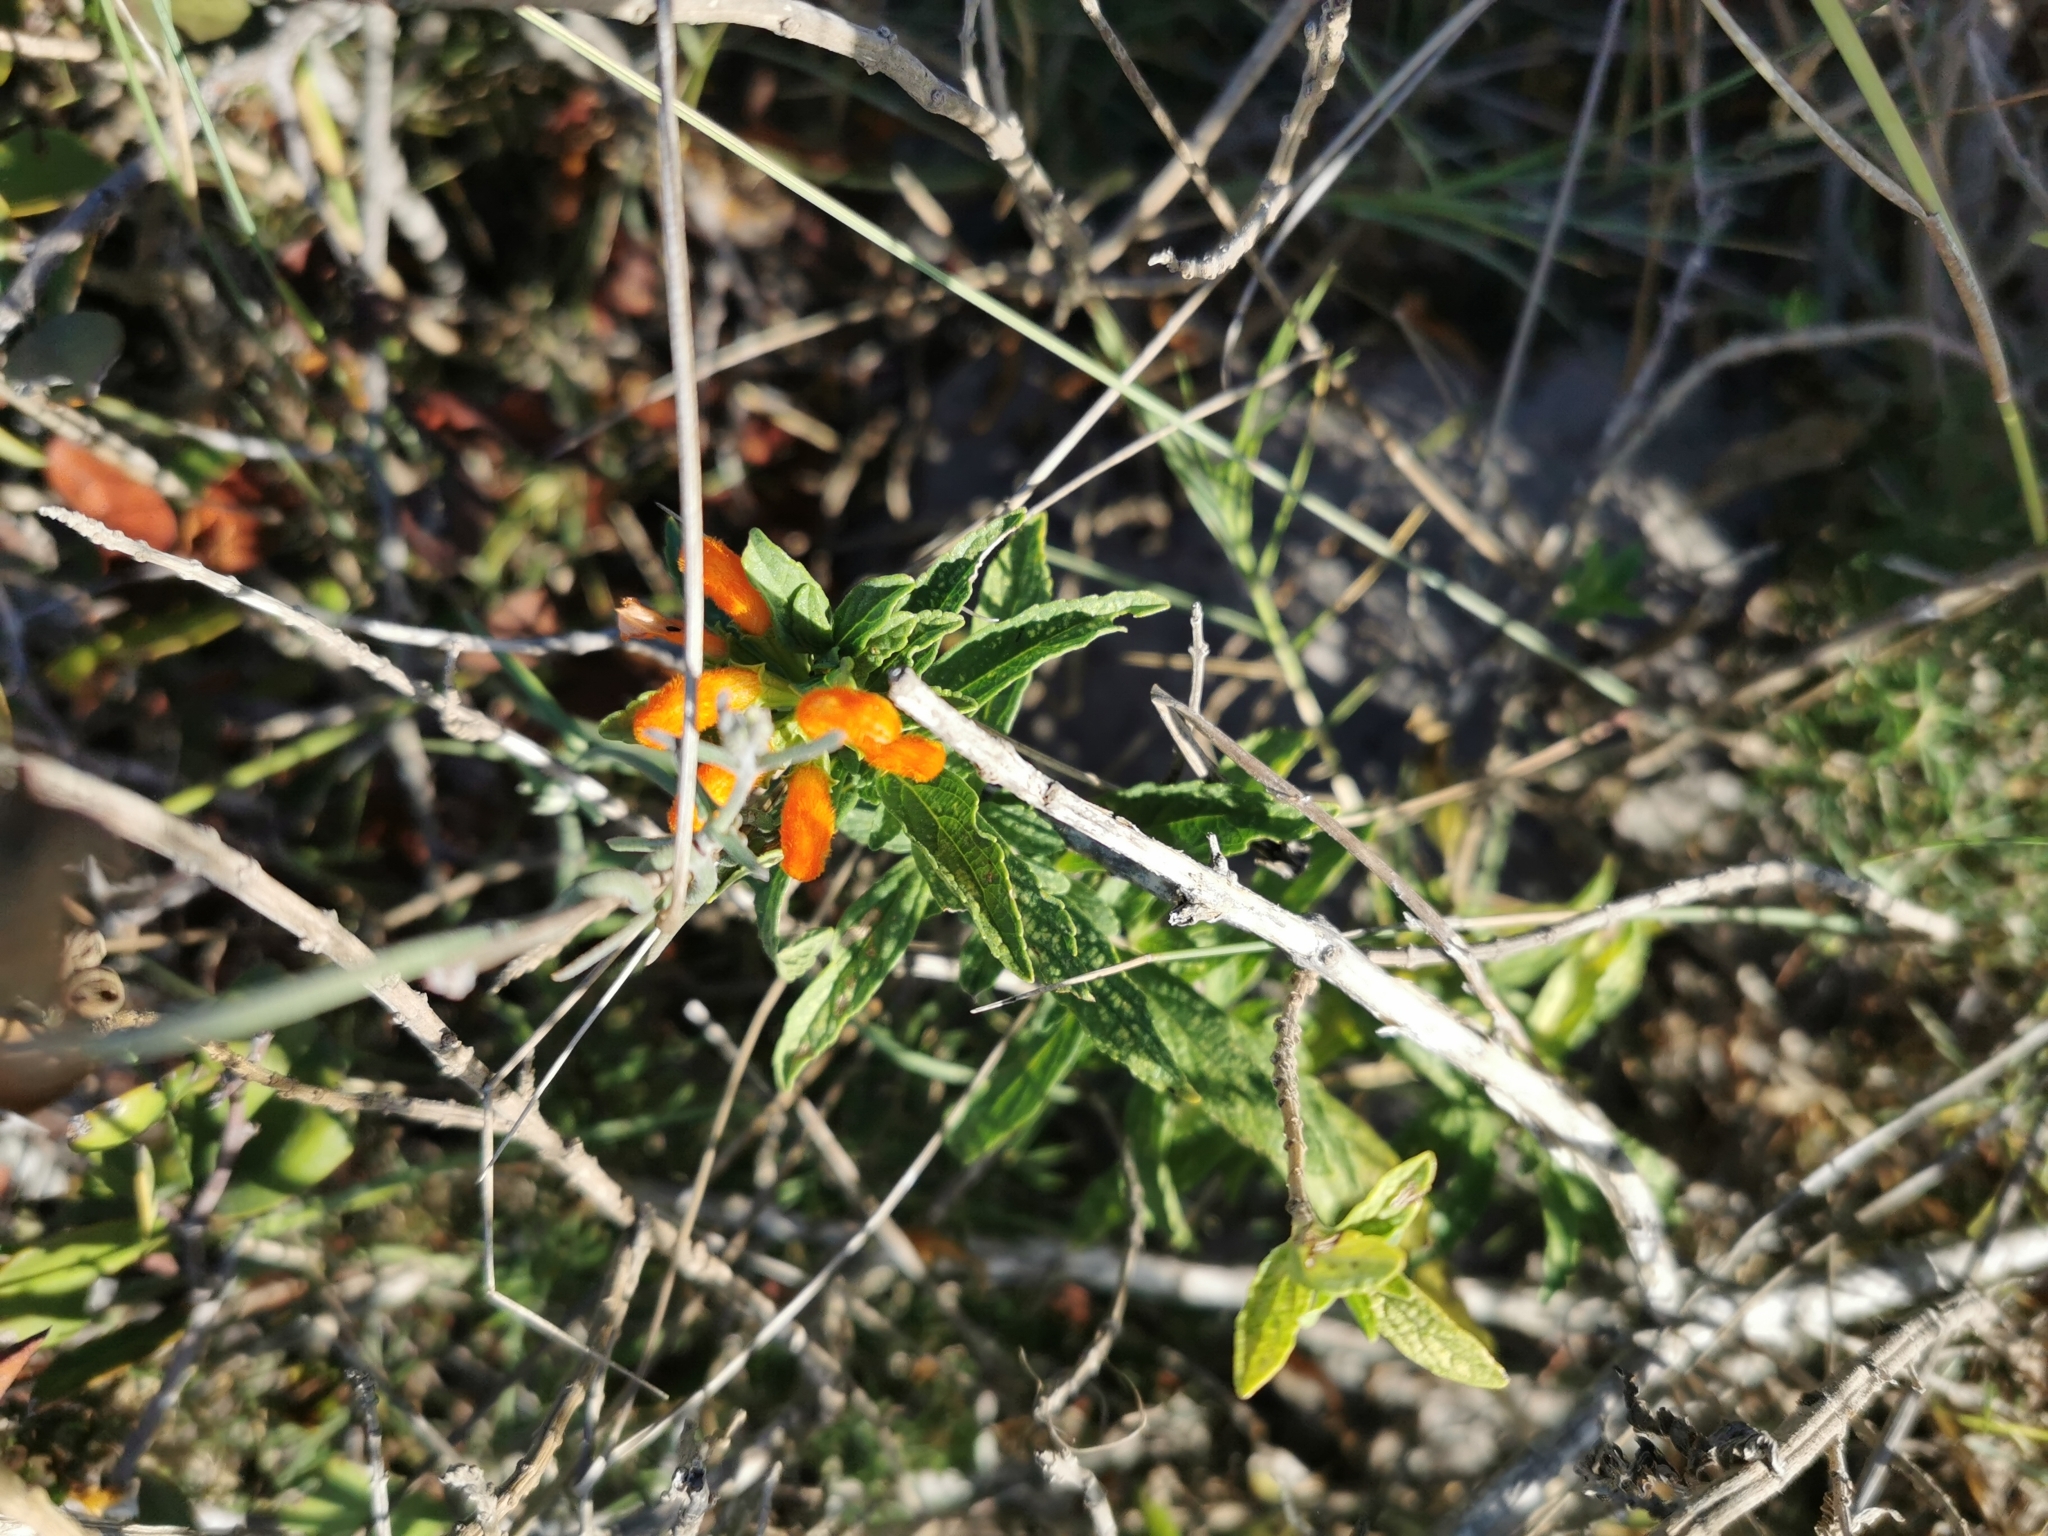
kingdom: Plantae
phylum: Tracheophyta
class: Magnoliopsida
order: Lamiales
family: Lamiaceae
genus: Leonotis
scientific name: Leonotis leonurus
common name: Lion's ear
